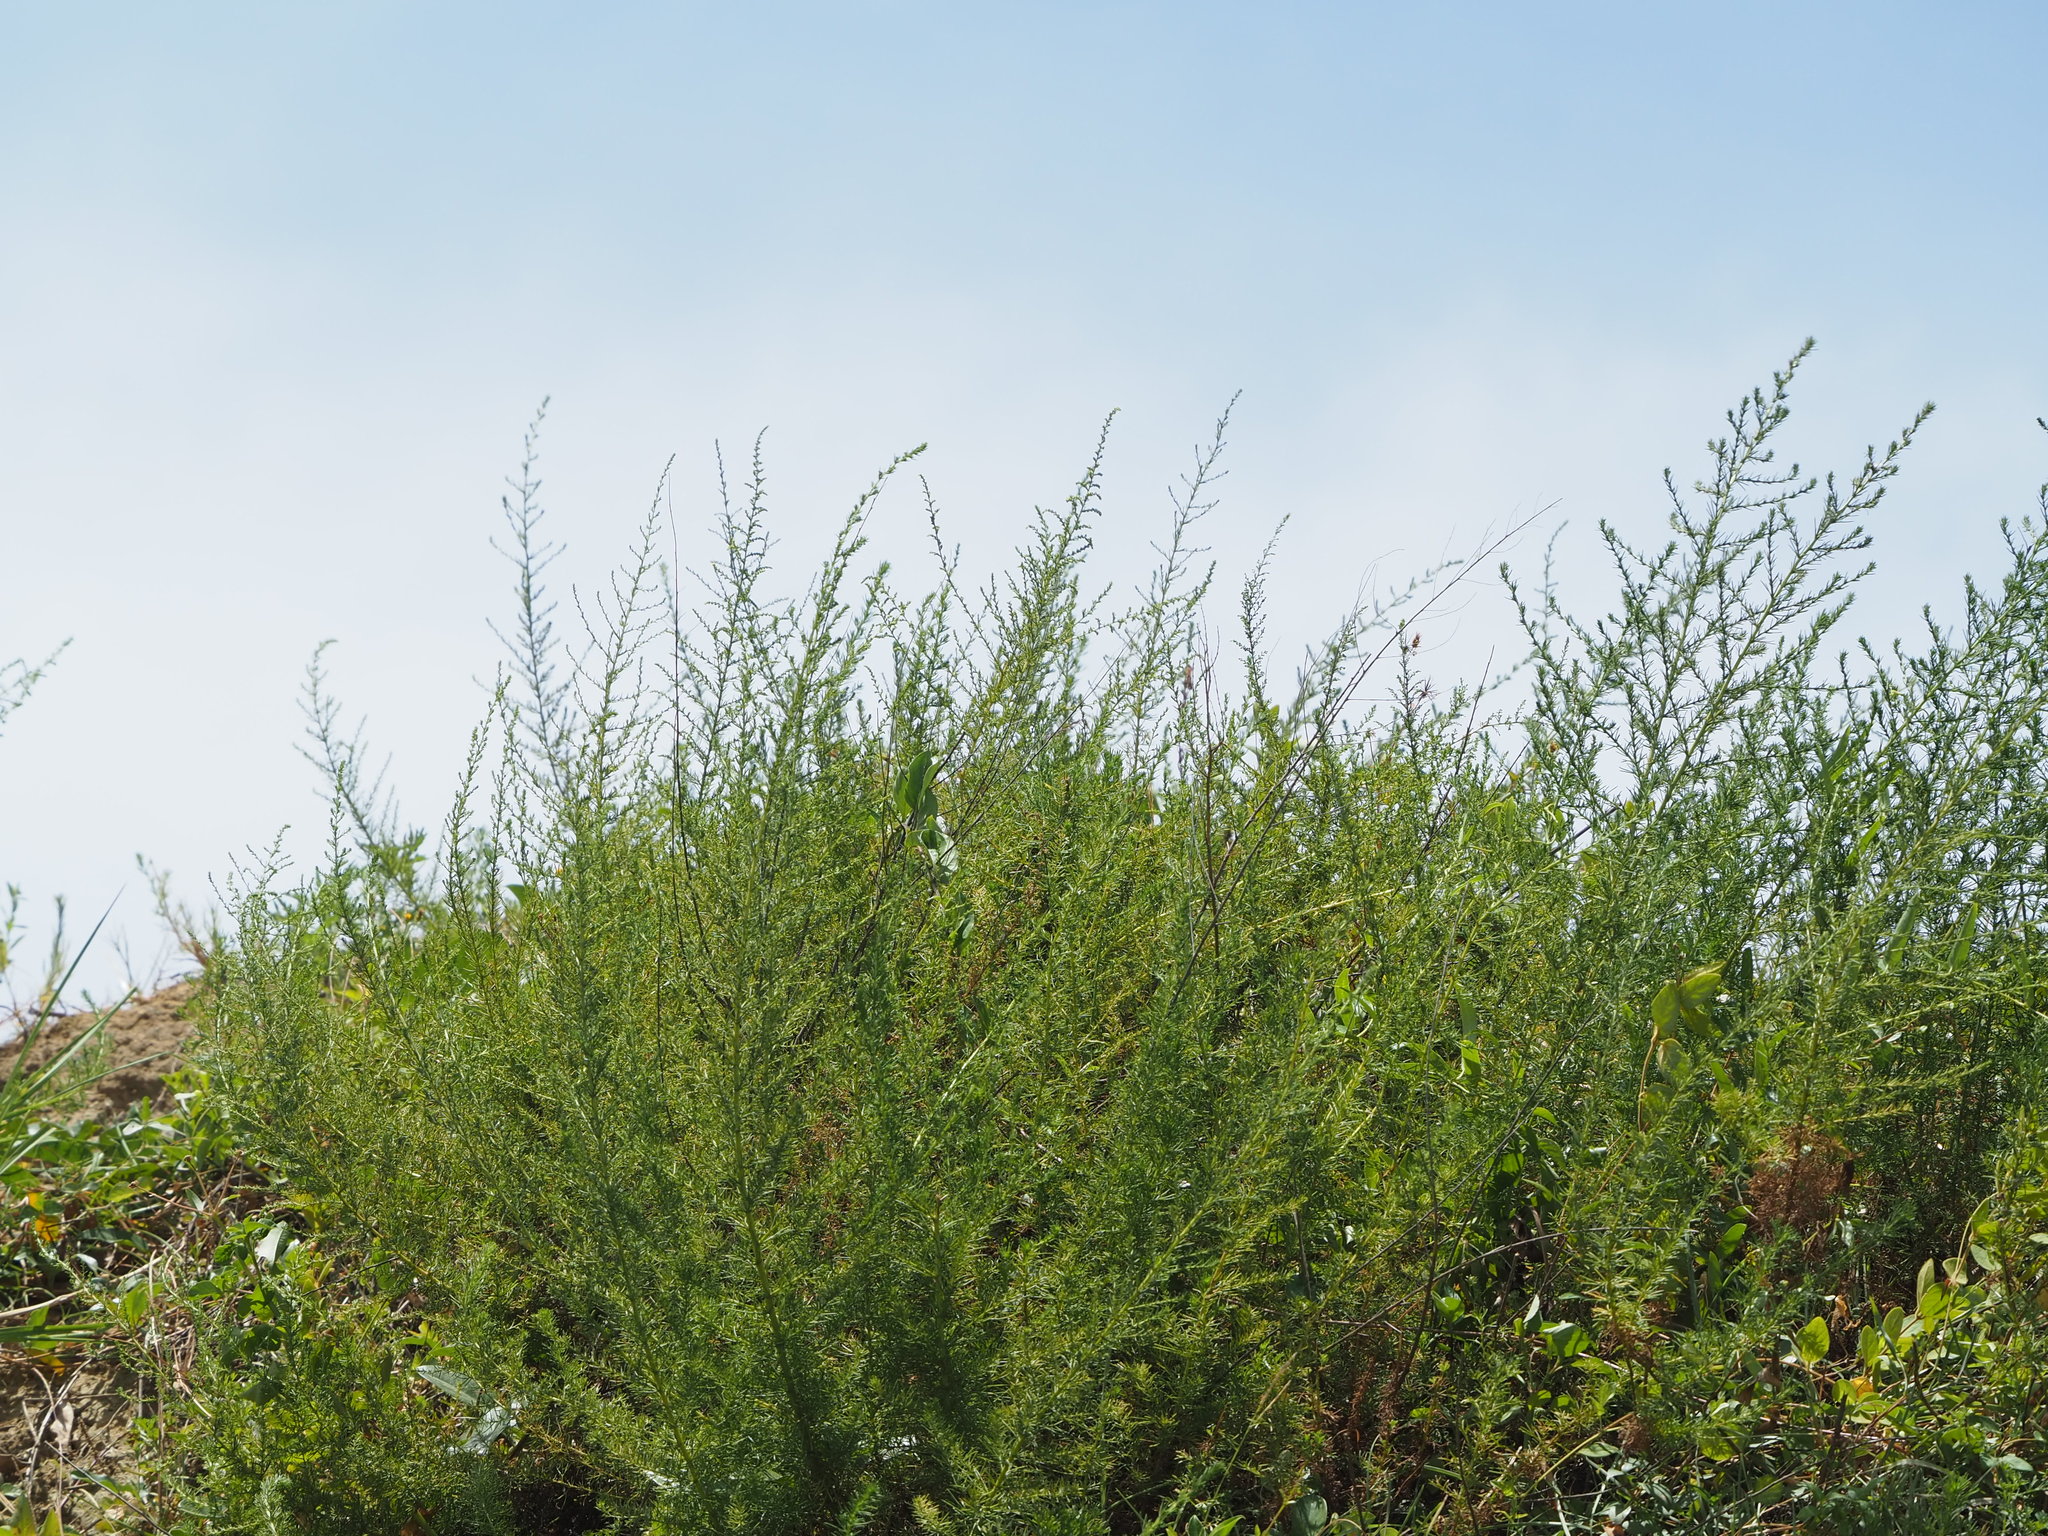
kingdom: Plantae
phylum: Tracheophyta
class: Magnoliopsida
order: Asterales
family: Asteraceae
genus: Artemisia
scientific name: Artemisia capillaris
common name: Yin-chen wormwood
